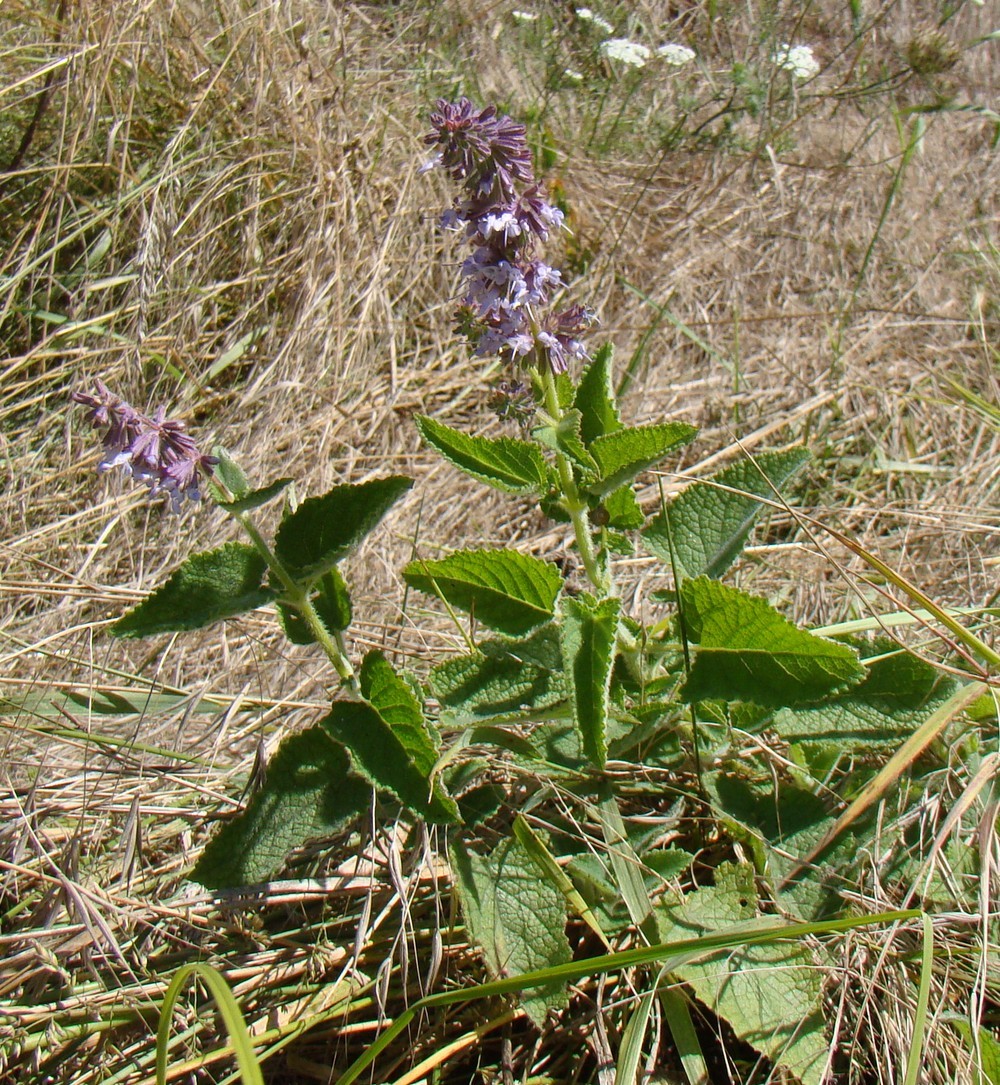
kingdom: Plantae
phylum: Tracheophyta
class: Magnoliopsida
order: Lamiales
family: Lamiaceae
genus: Salvia
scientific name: Salvia verticillata
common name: Whorled clary
